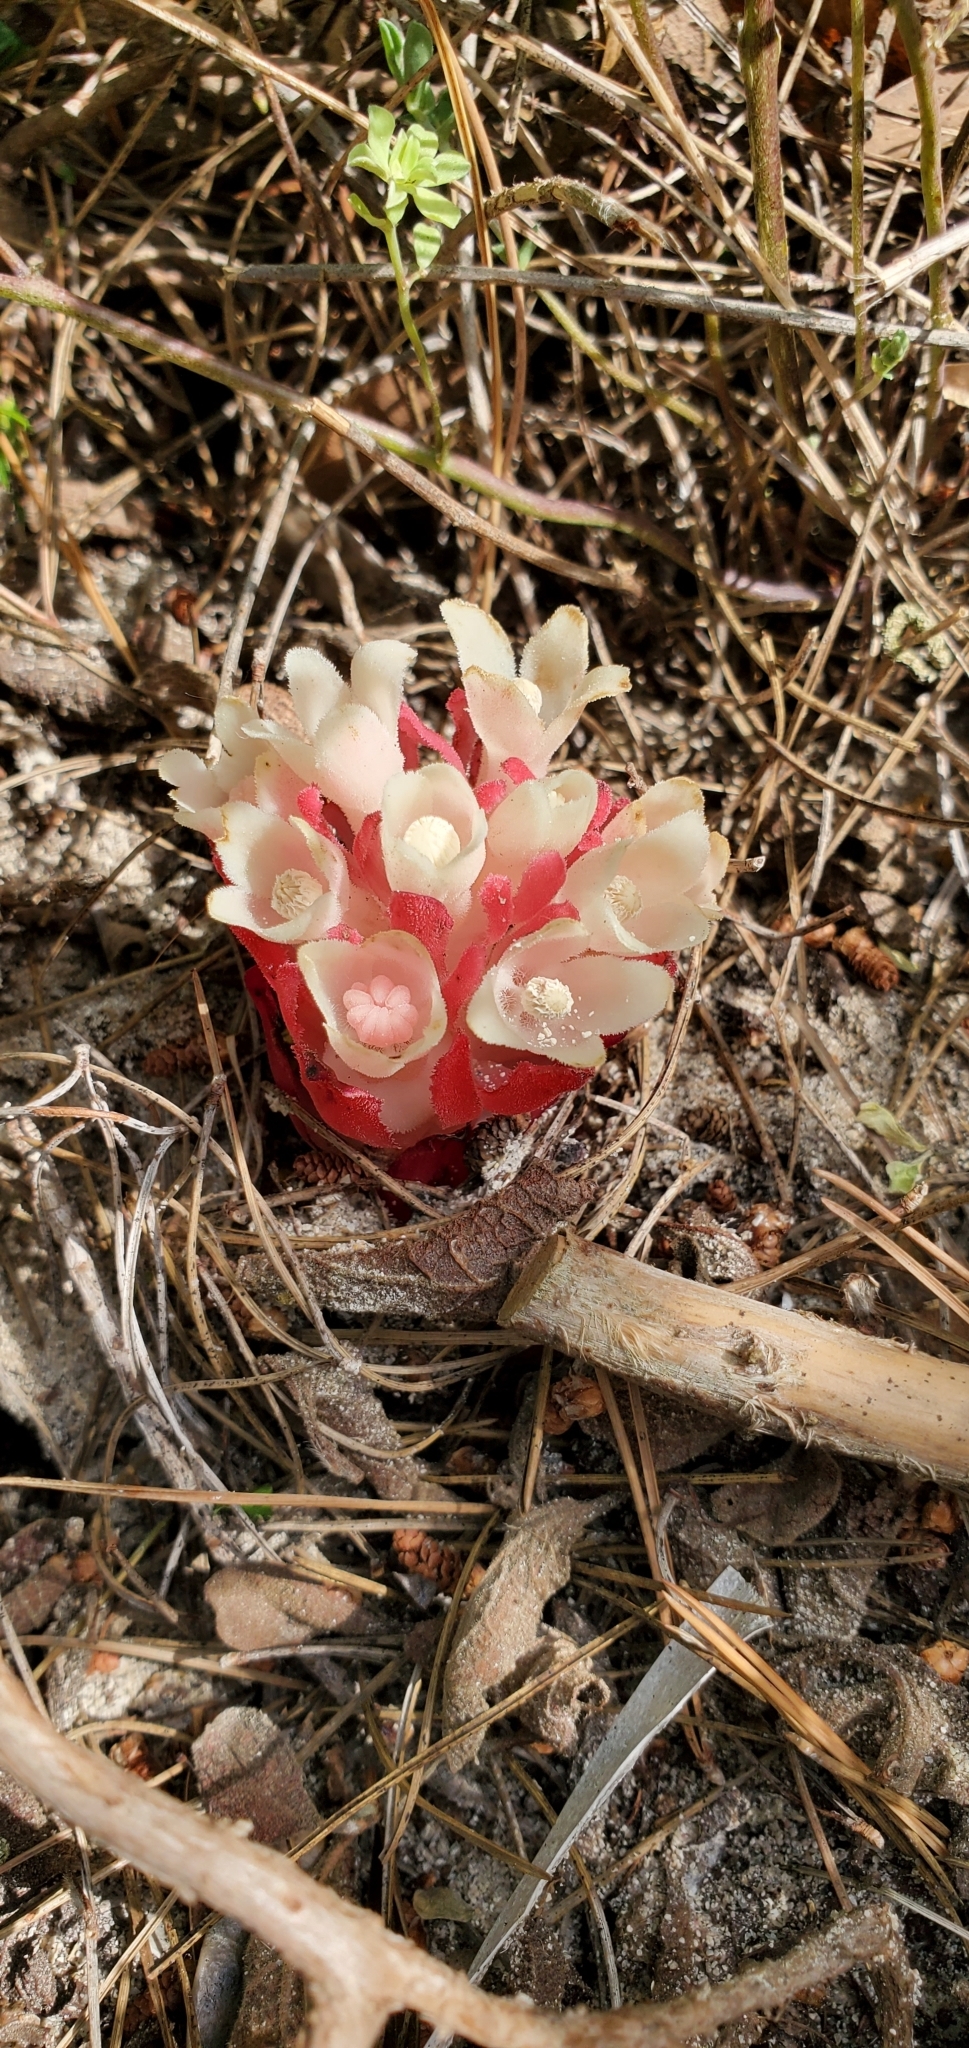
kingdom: Plantae
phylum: Tracheophyta
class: Magnoliopsida
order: Malvales
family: Cytinaceae
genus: Cytinus
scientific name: Cytinus ruber
